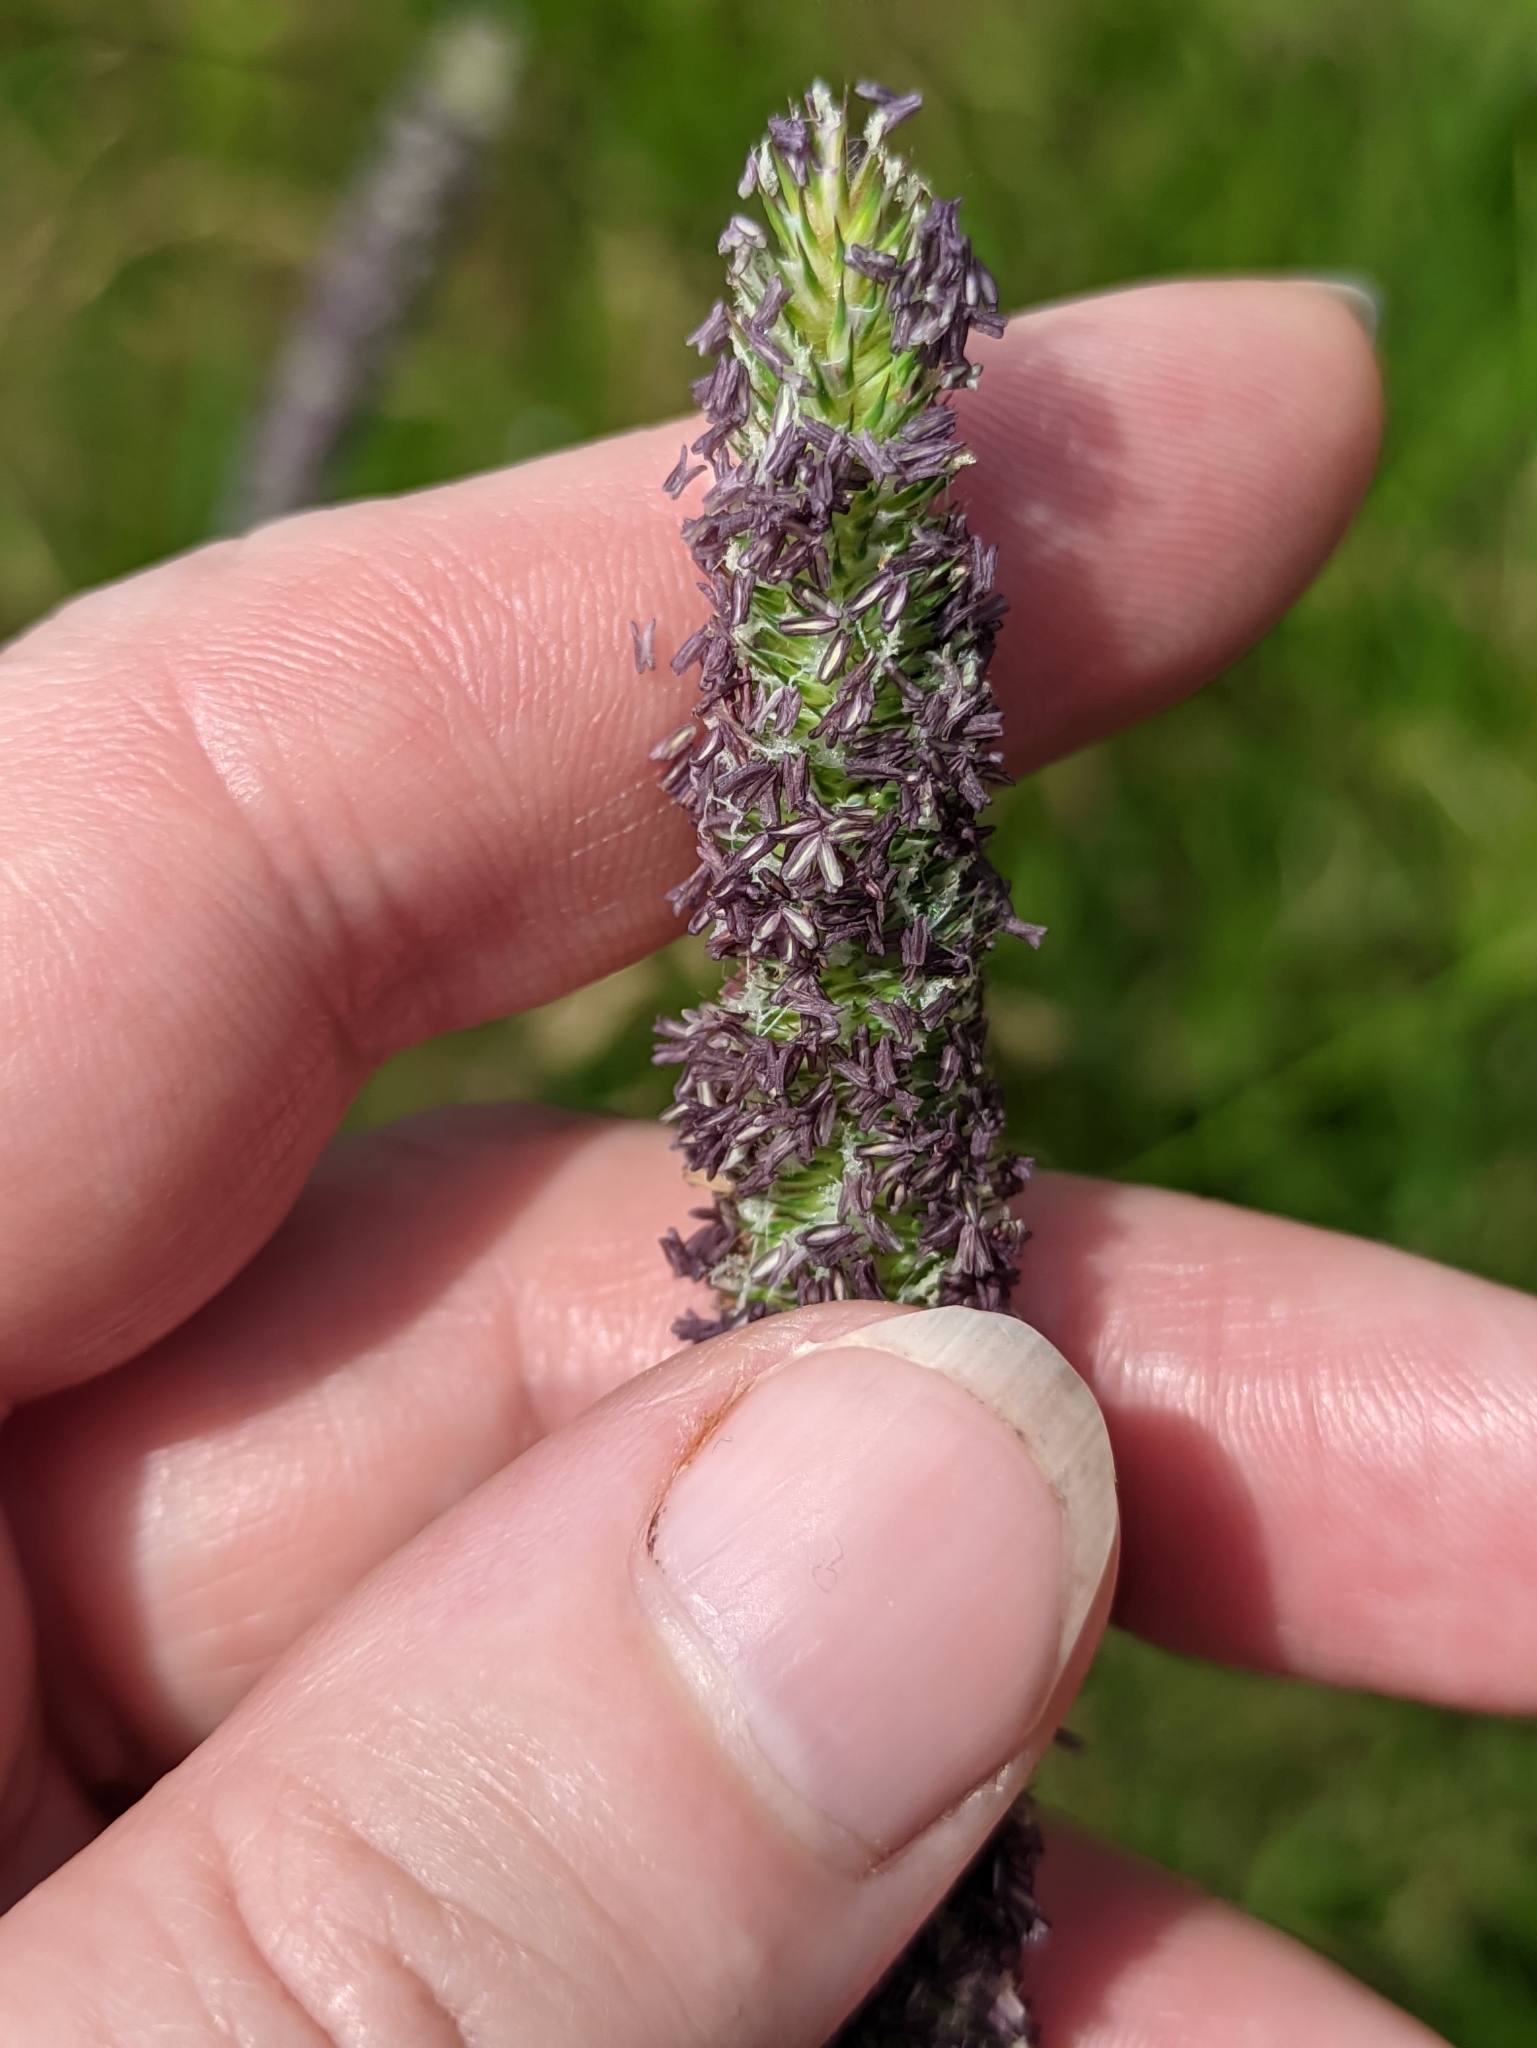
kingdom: Plantae
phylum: Tracheophyta
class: Liliopsida
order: Poales
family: Poaceae
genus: Phleum
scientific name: Phleum pratense
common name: Timothy grass
